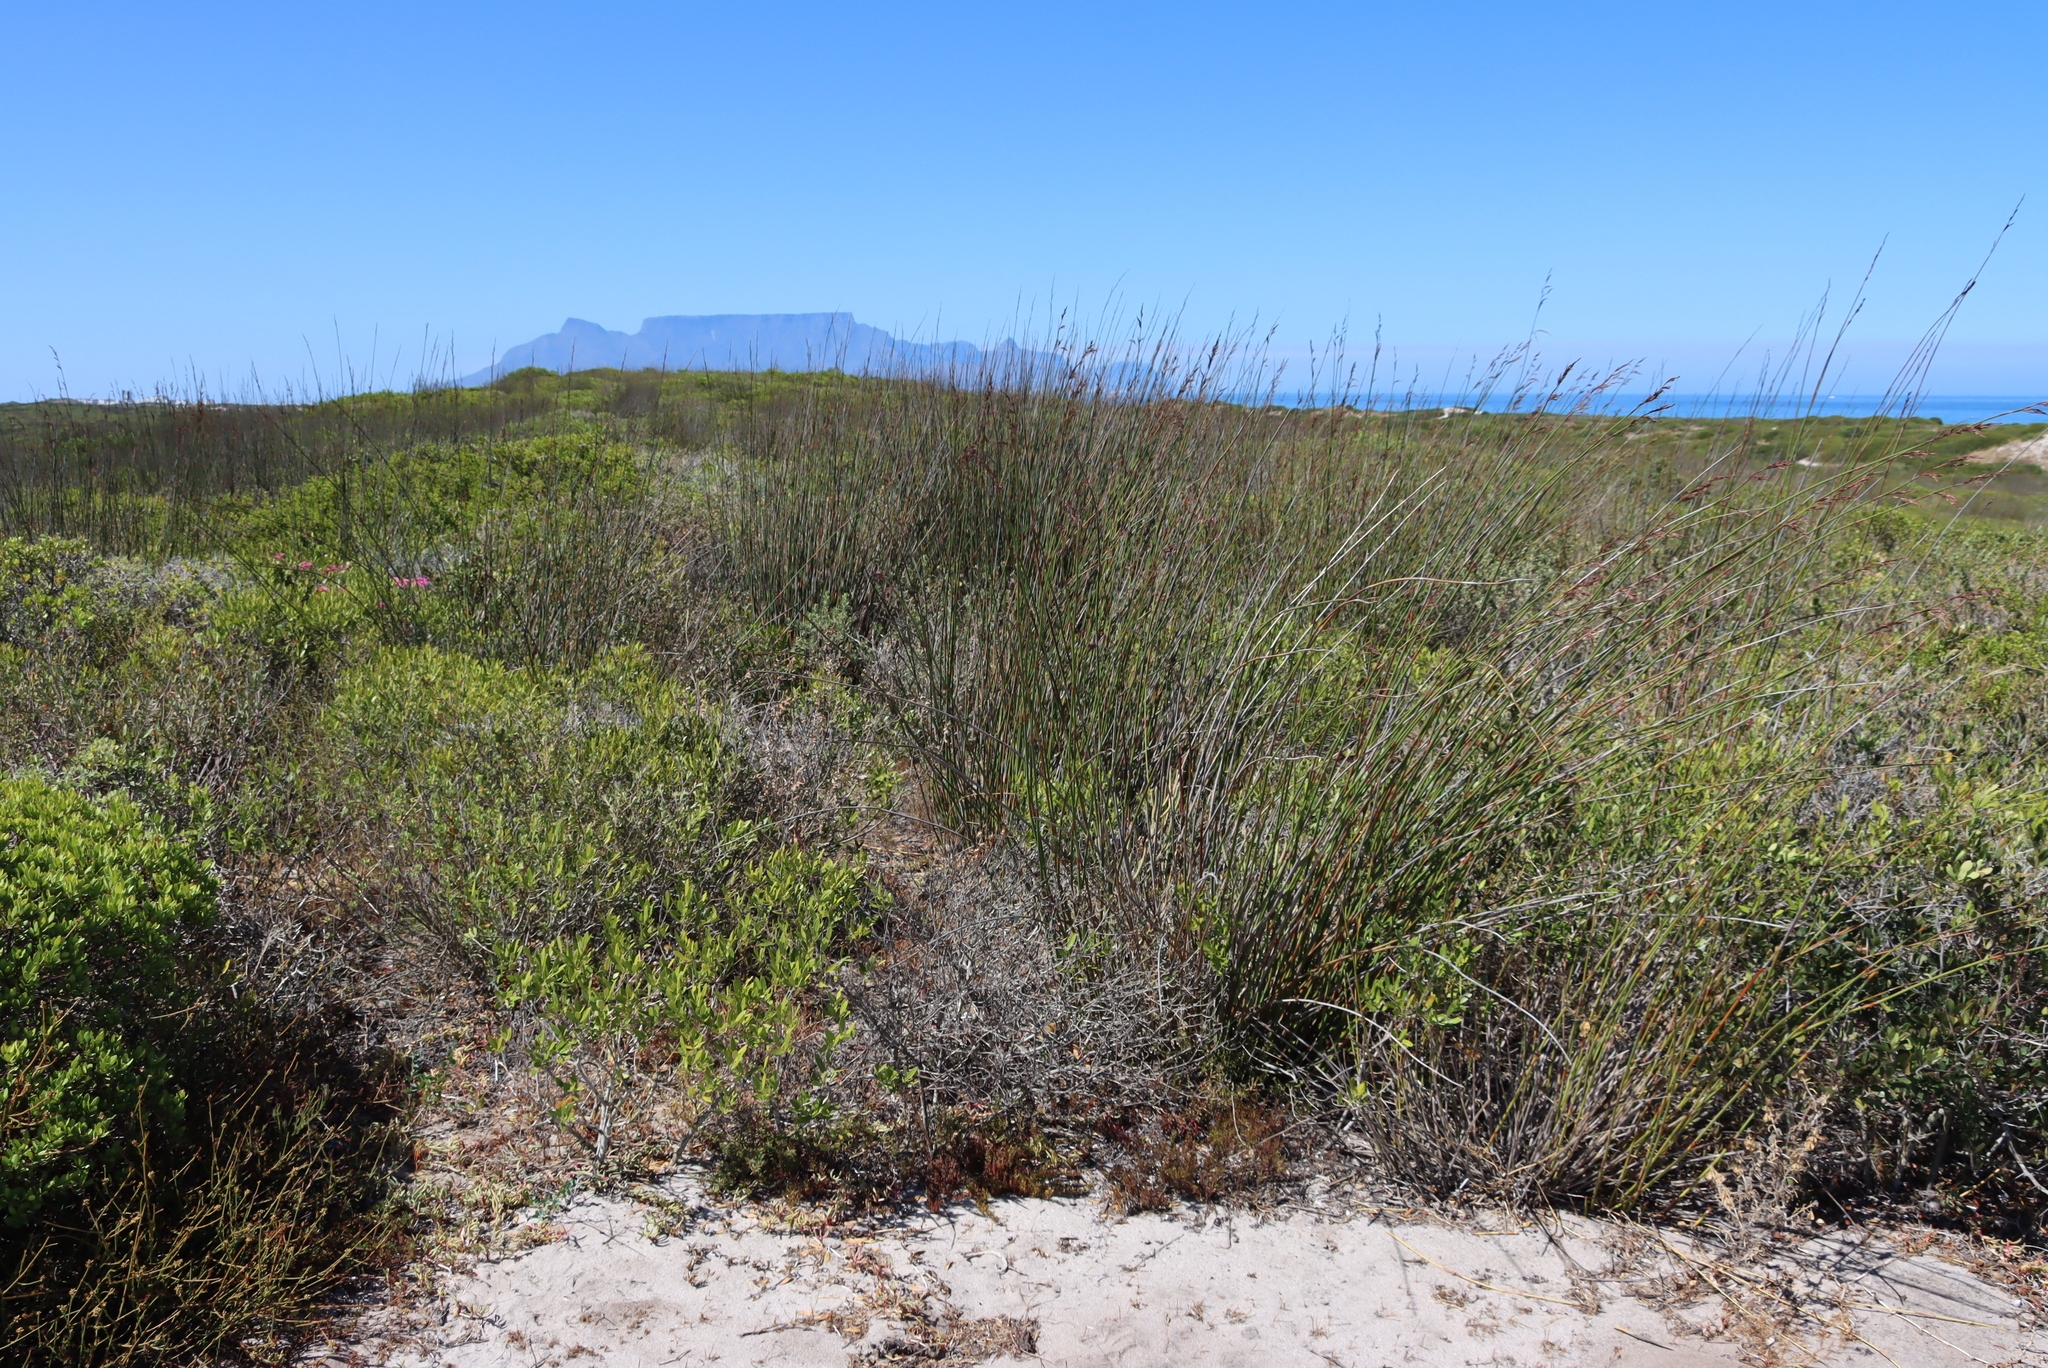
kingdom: Plantae
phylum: Tracheophyta
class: Liliopsida
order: Poales
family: Restionaceae
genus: Thamnochortus
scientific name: Thamnochortus spicigerus
